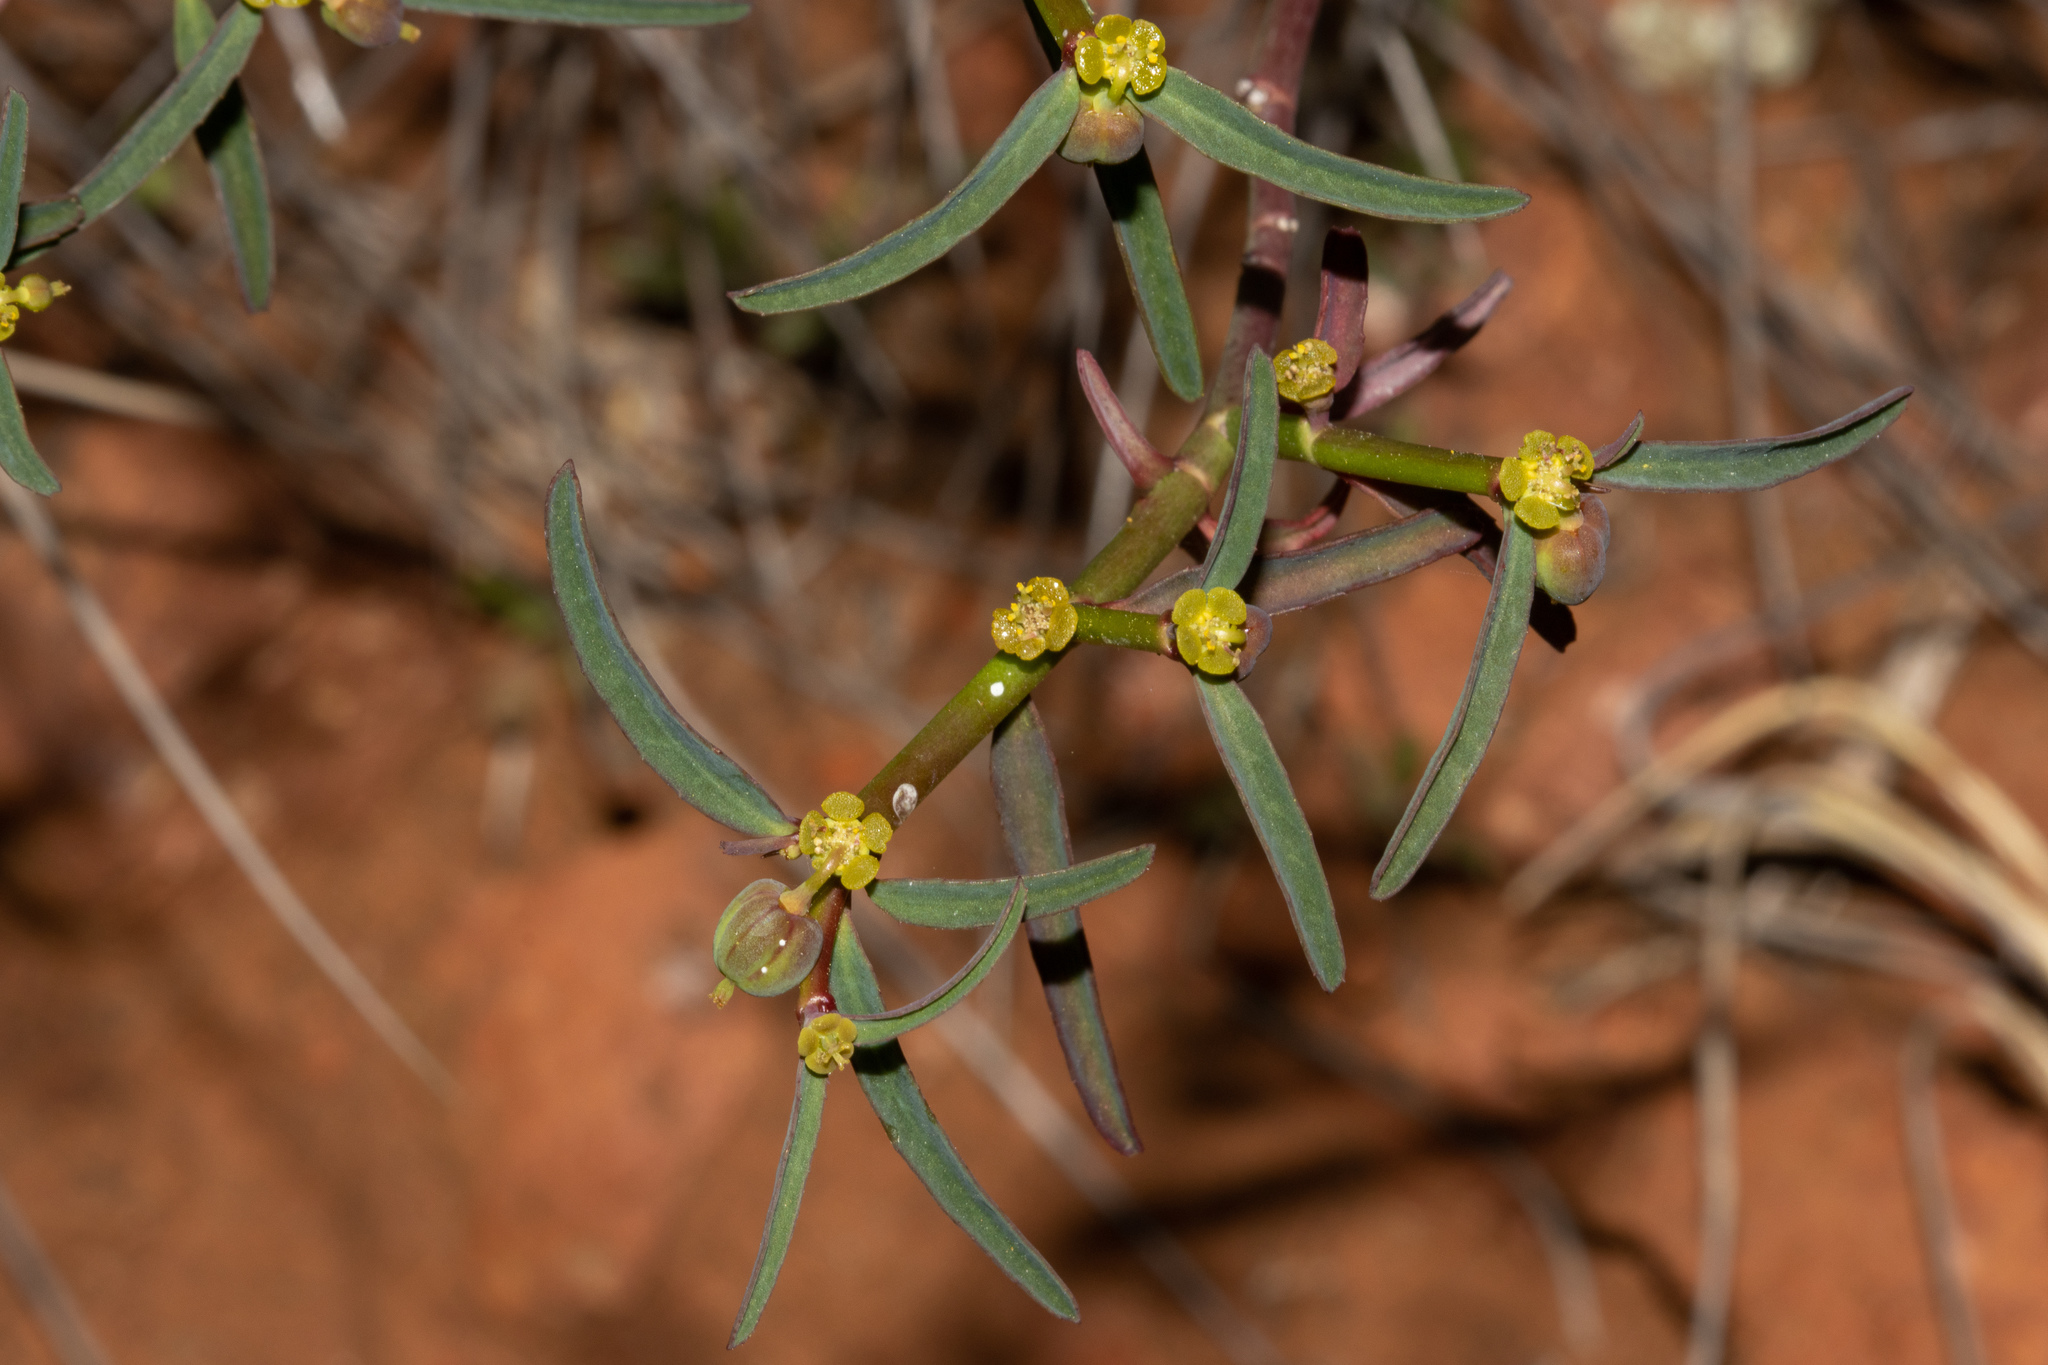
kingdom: Plantae
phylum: Tracheophyta
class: Magnoliopsida
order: Malpighiales
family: Euphorbiaceae
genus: Euphorbia
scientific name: Euphorbia tannensis
